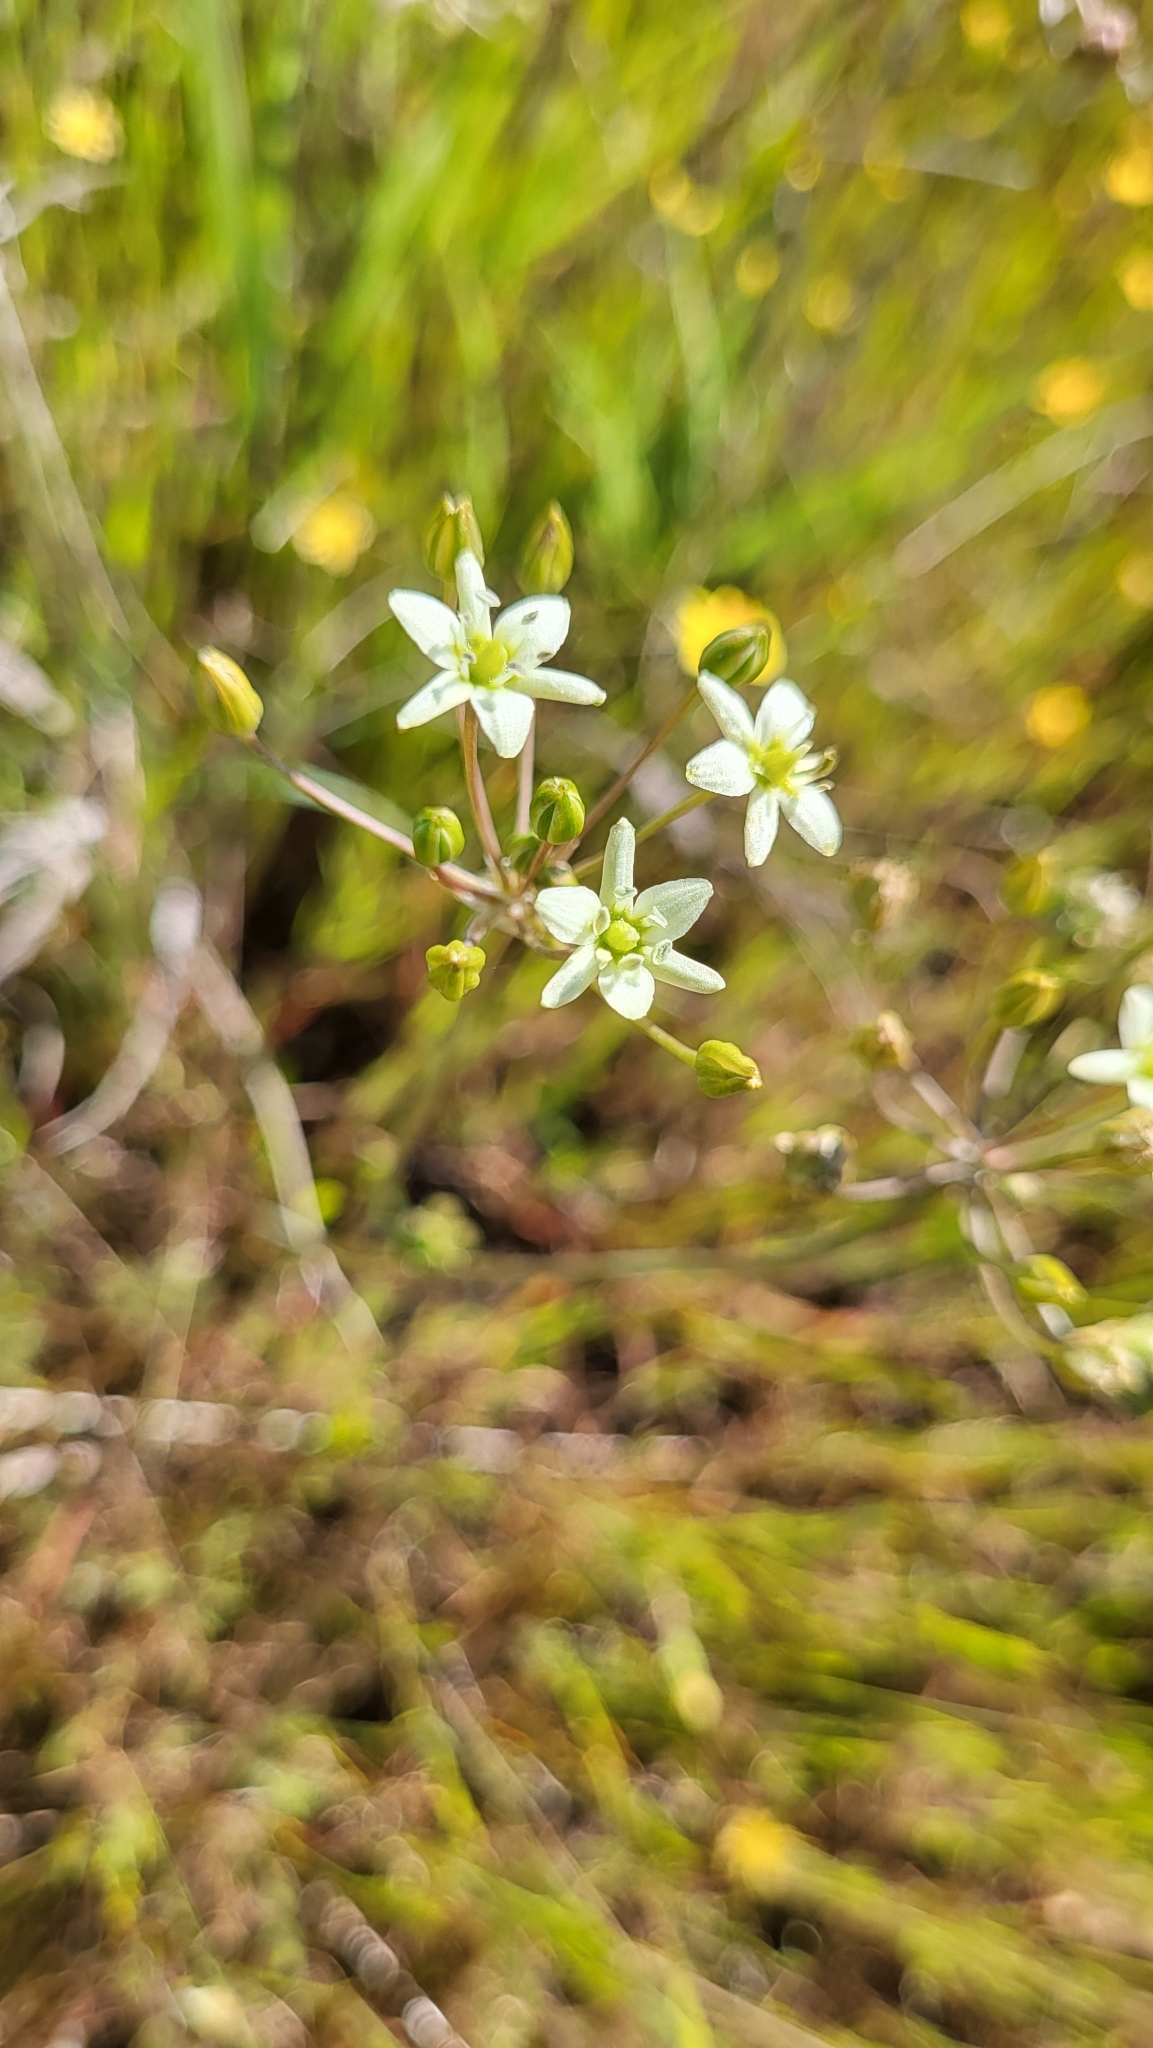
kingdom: Plantae
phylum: Tracheophyta
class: Liliopsida
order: Asparagales
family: Asparagaceae
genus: Muilla
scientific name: Muilla maritima
